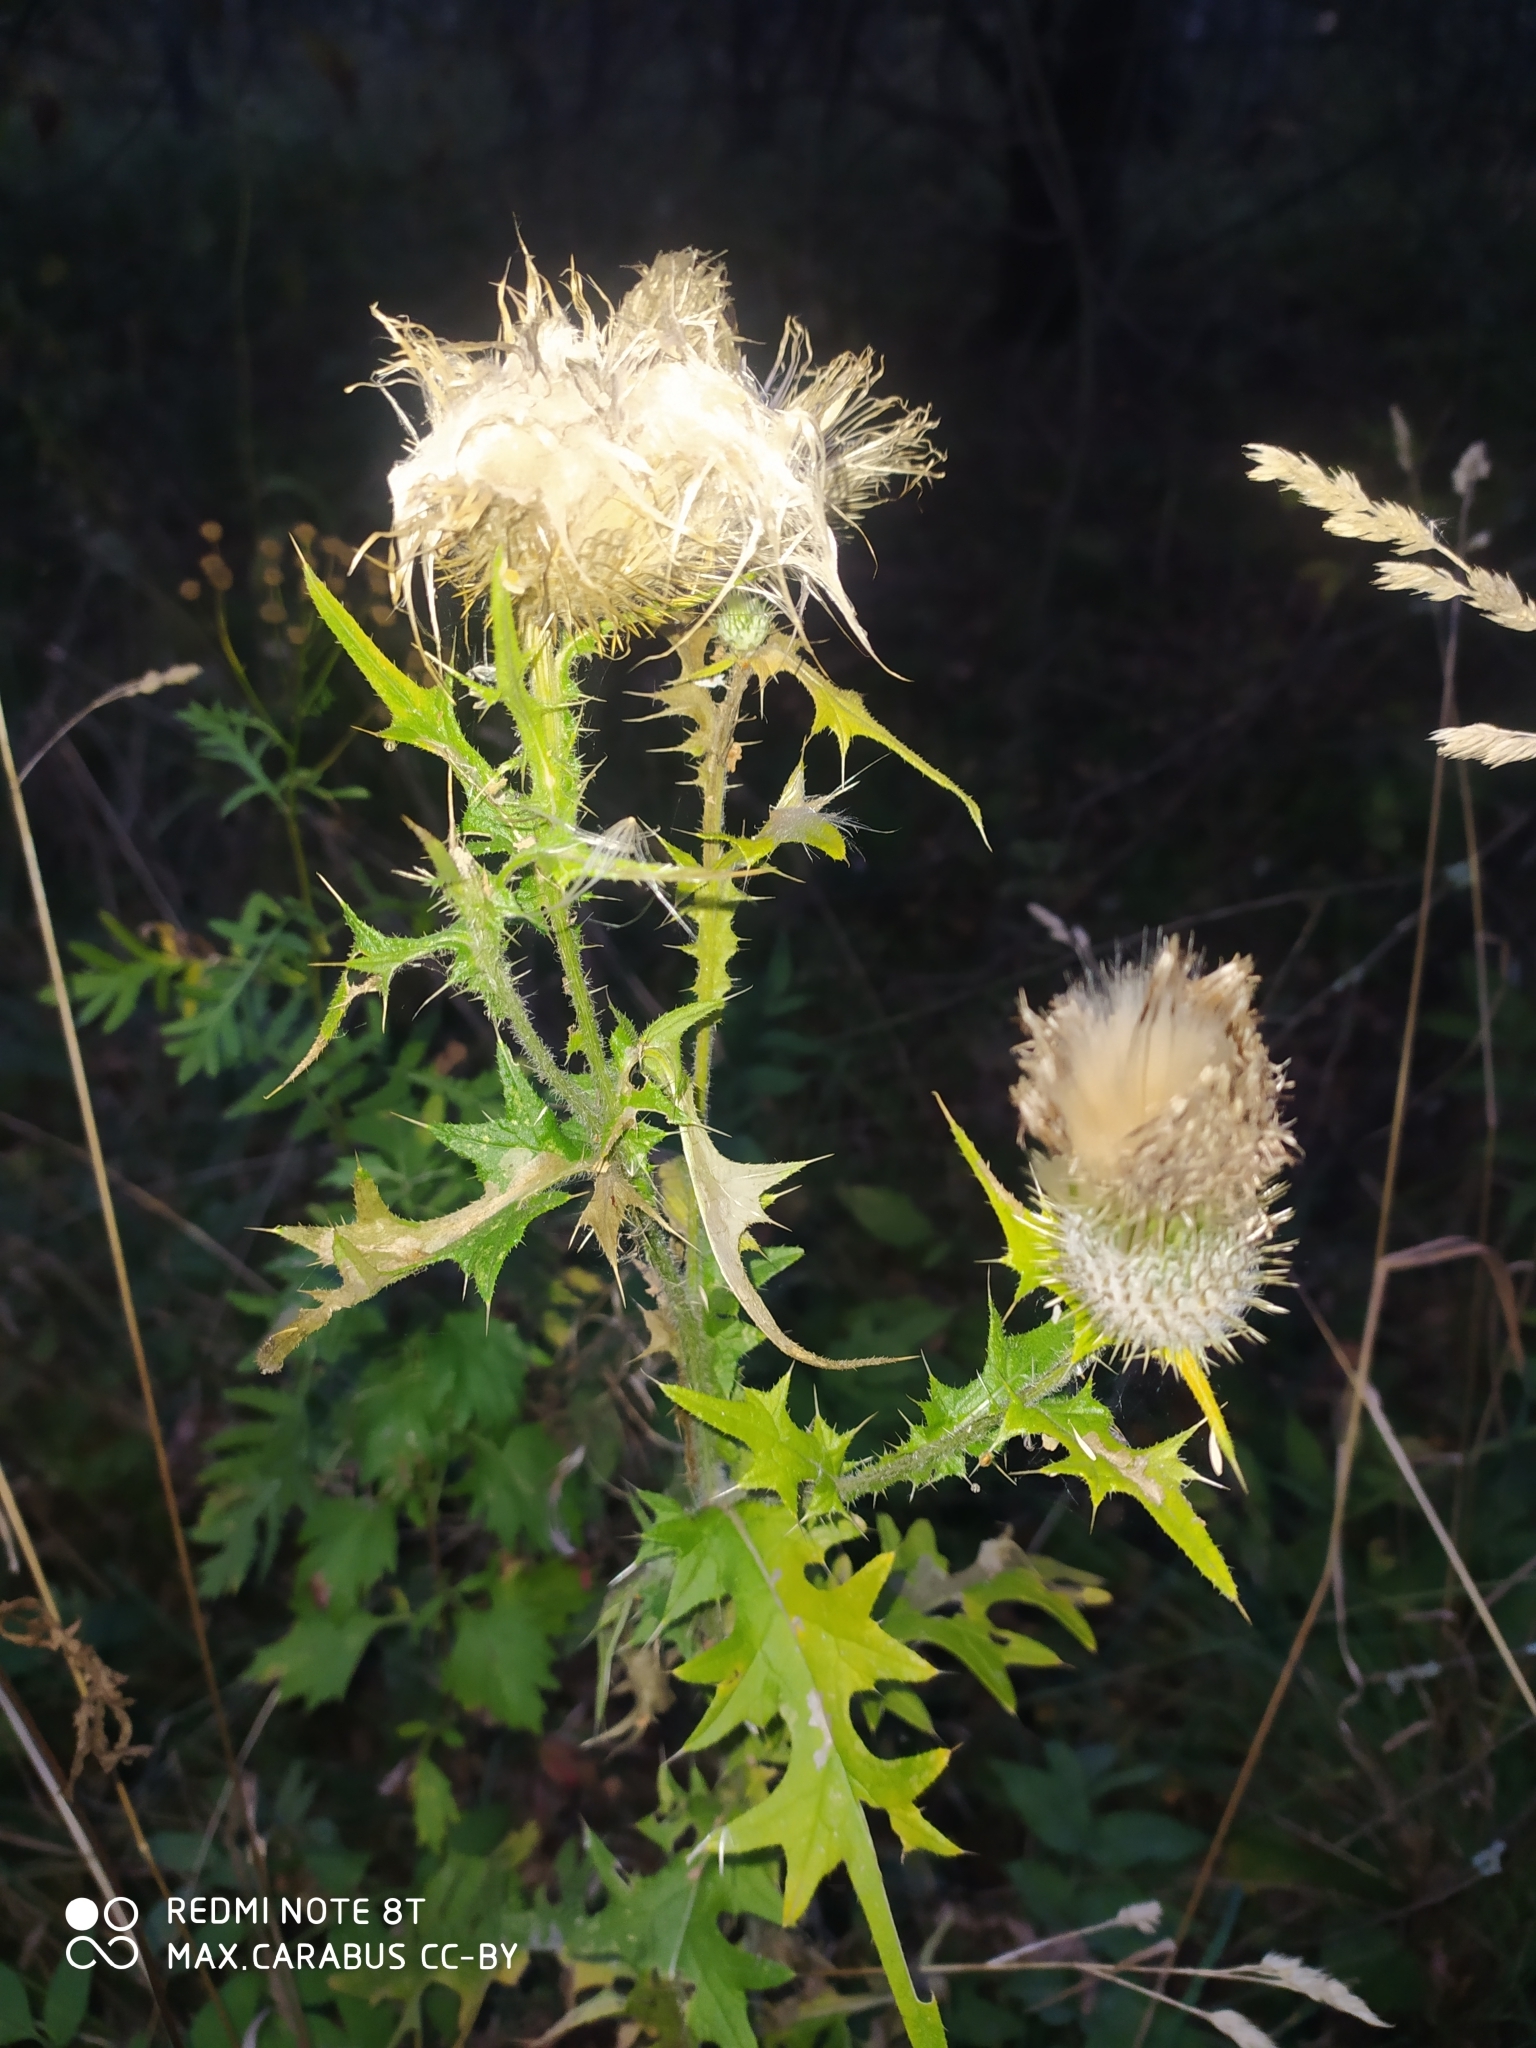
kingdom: Plantae
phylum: Tracheophyta
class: Magnoliopsida
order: Asterales
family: Asteraceae
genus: Cirsium
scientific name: Cirsium vulgare
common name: Bull thistle
